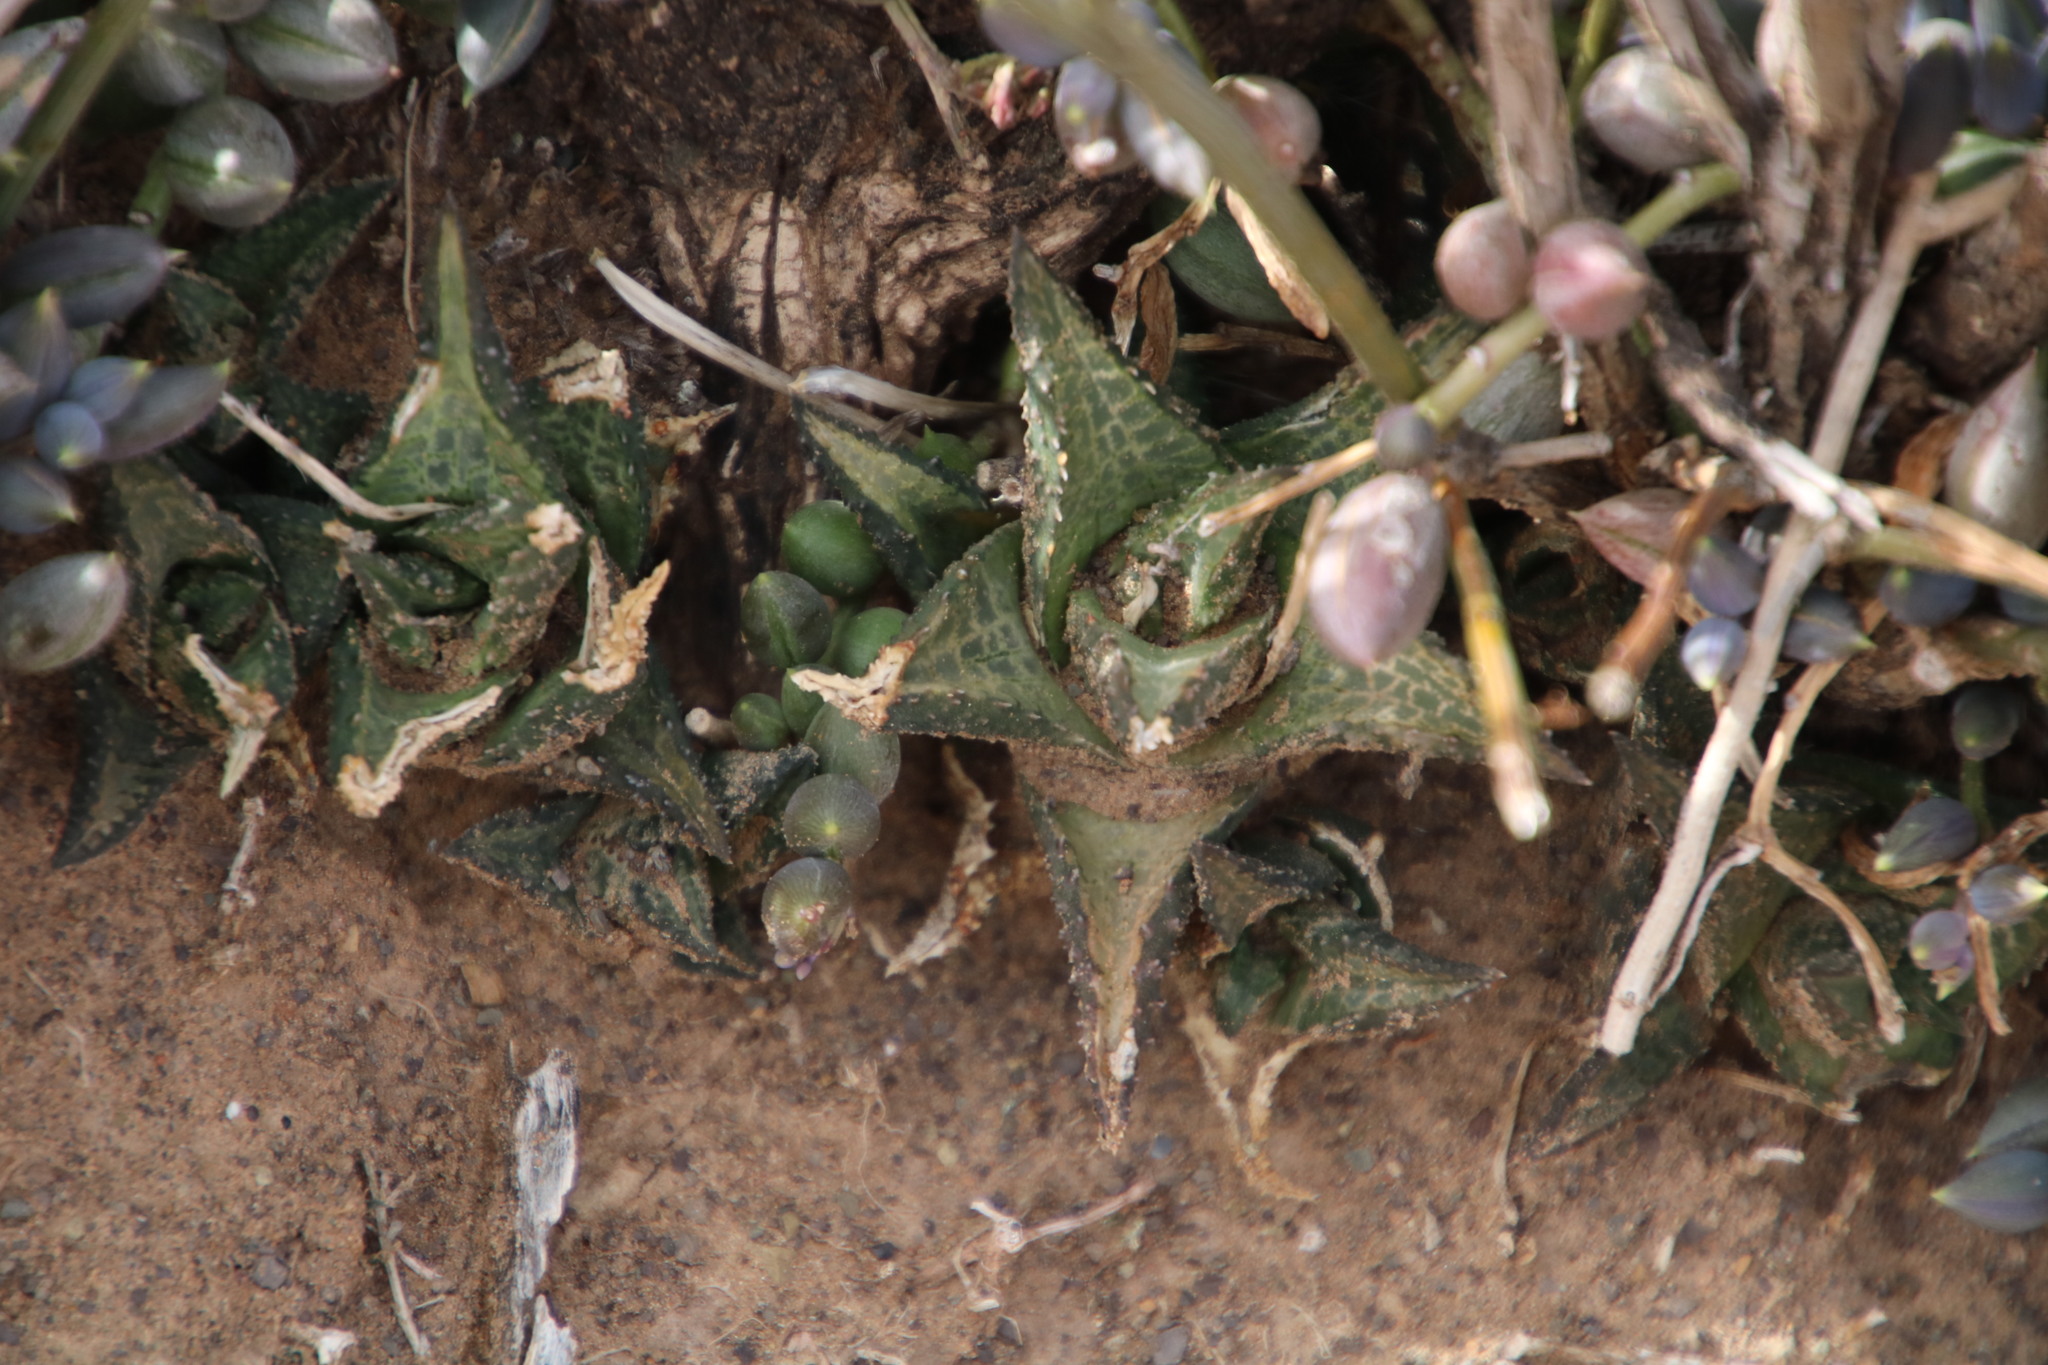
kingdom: Plantae
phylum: Tracheophyta
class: Liliopsida
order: Asparagales
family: Asphodelaceae
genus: Haworthiopsis
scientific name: Haworthiopsis tessellata
